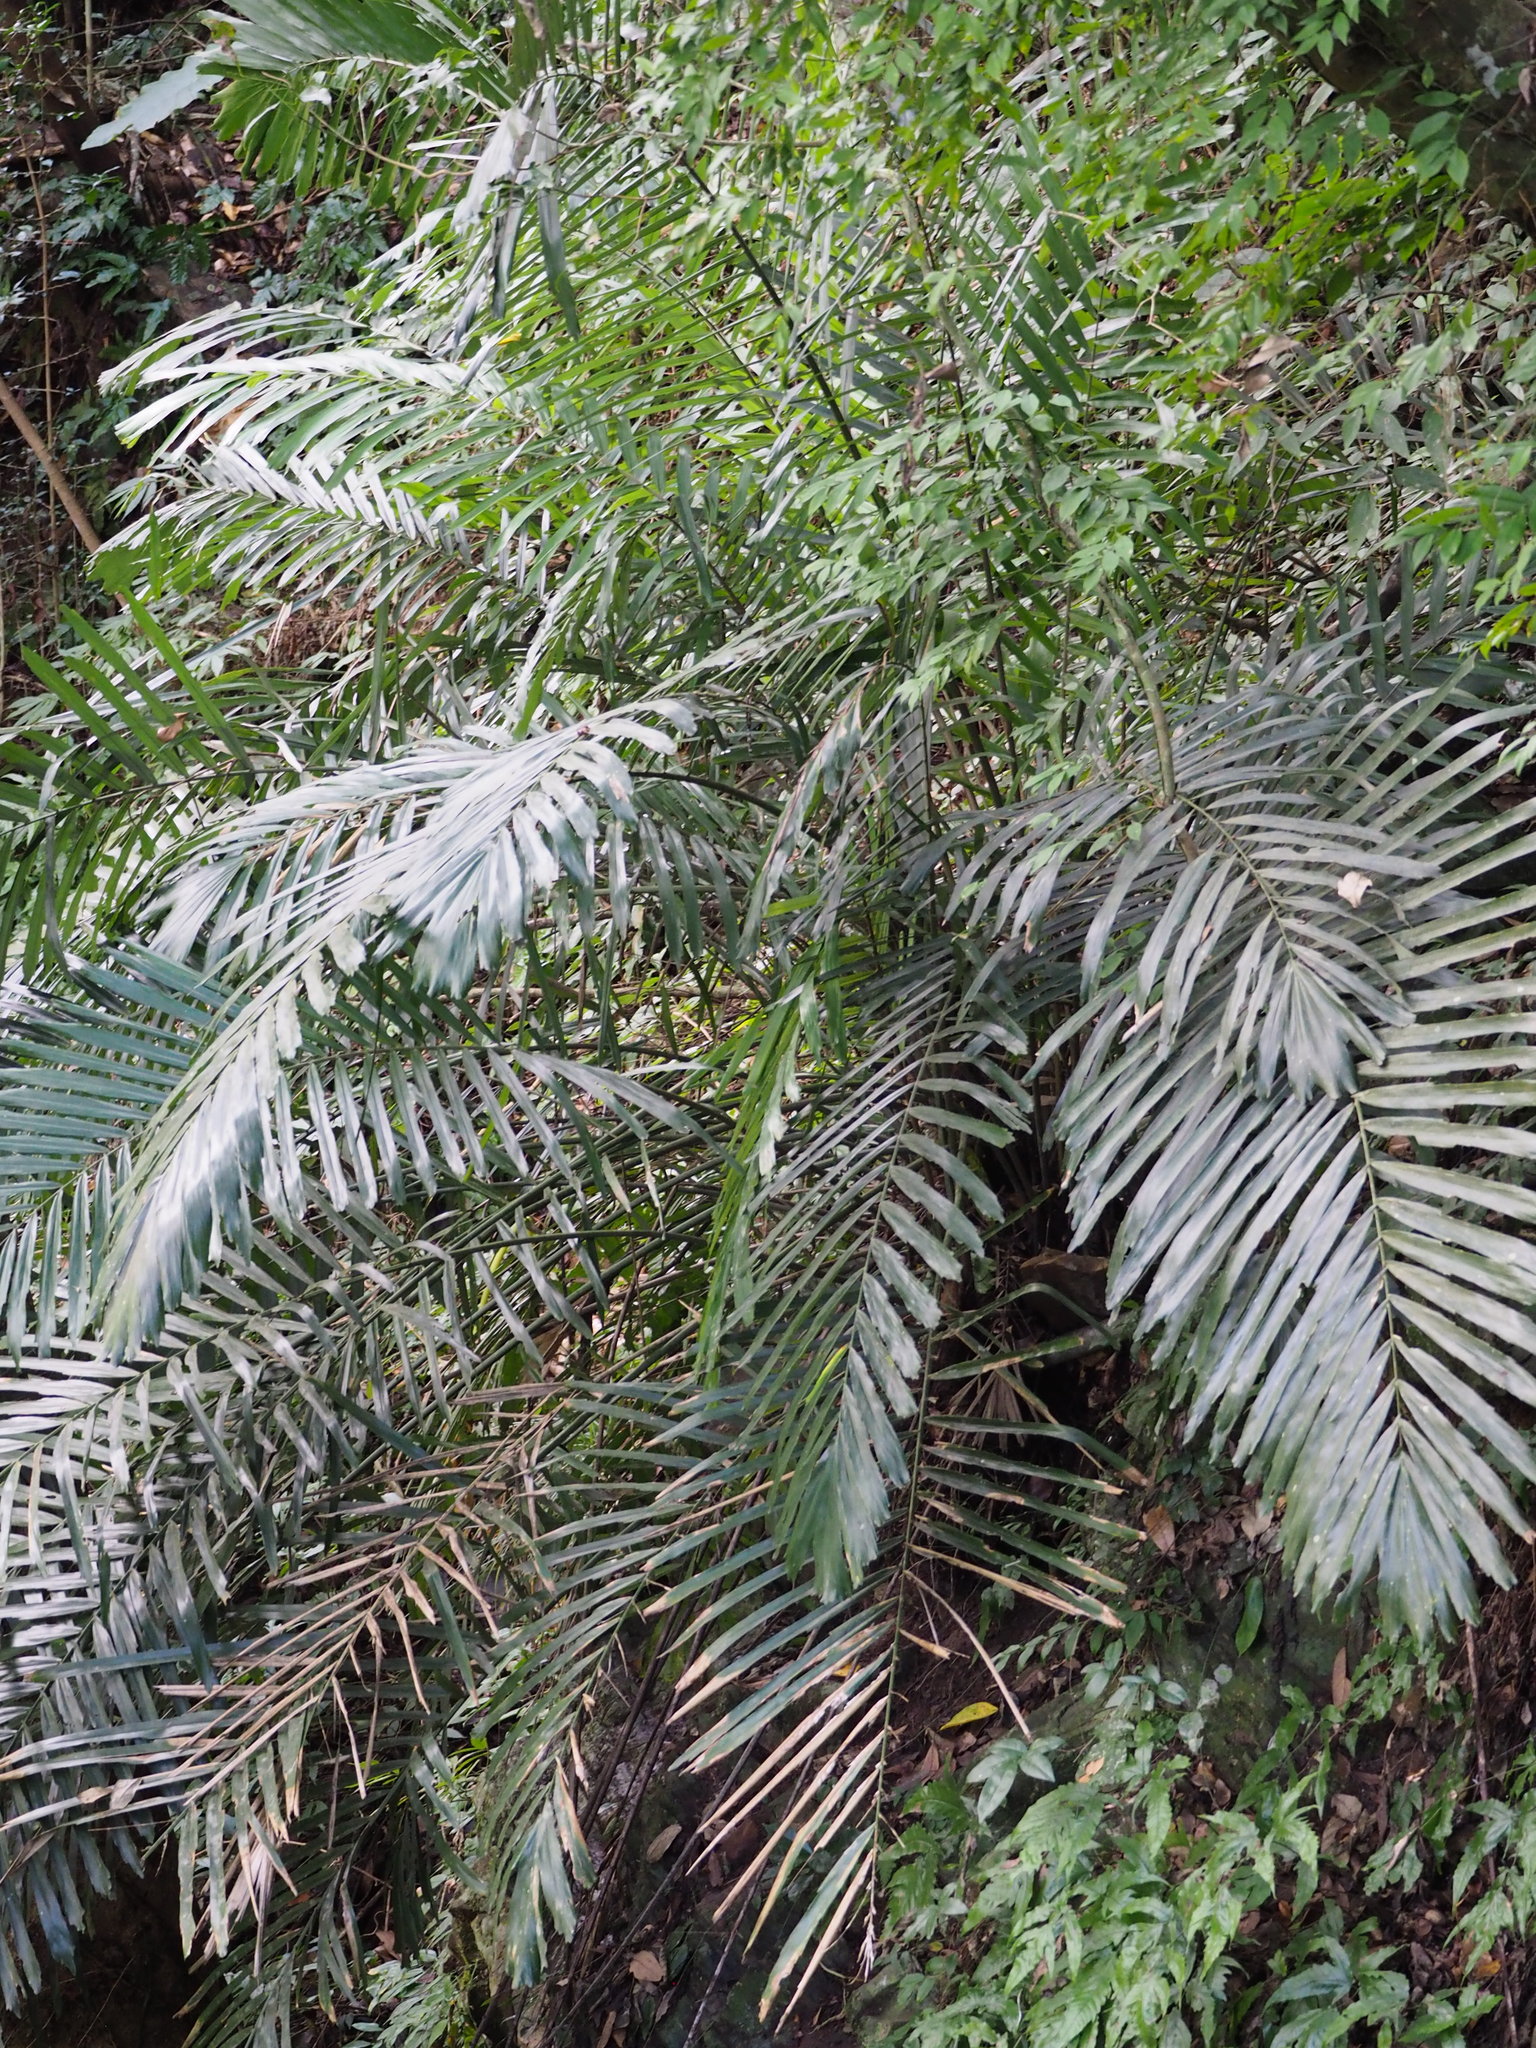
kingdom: Plantae
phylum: Tracheophyta
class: Liliopsida
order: Arecales
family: Arecaceae
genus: Arenga
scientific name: Arenga engleri
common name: Formosan sugar palm
